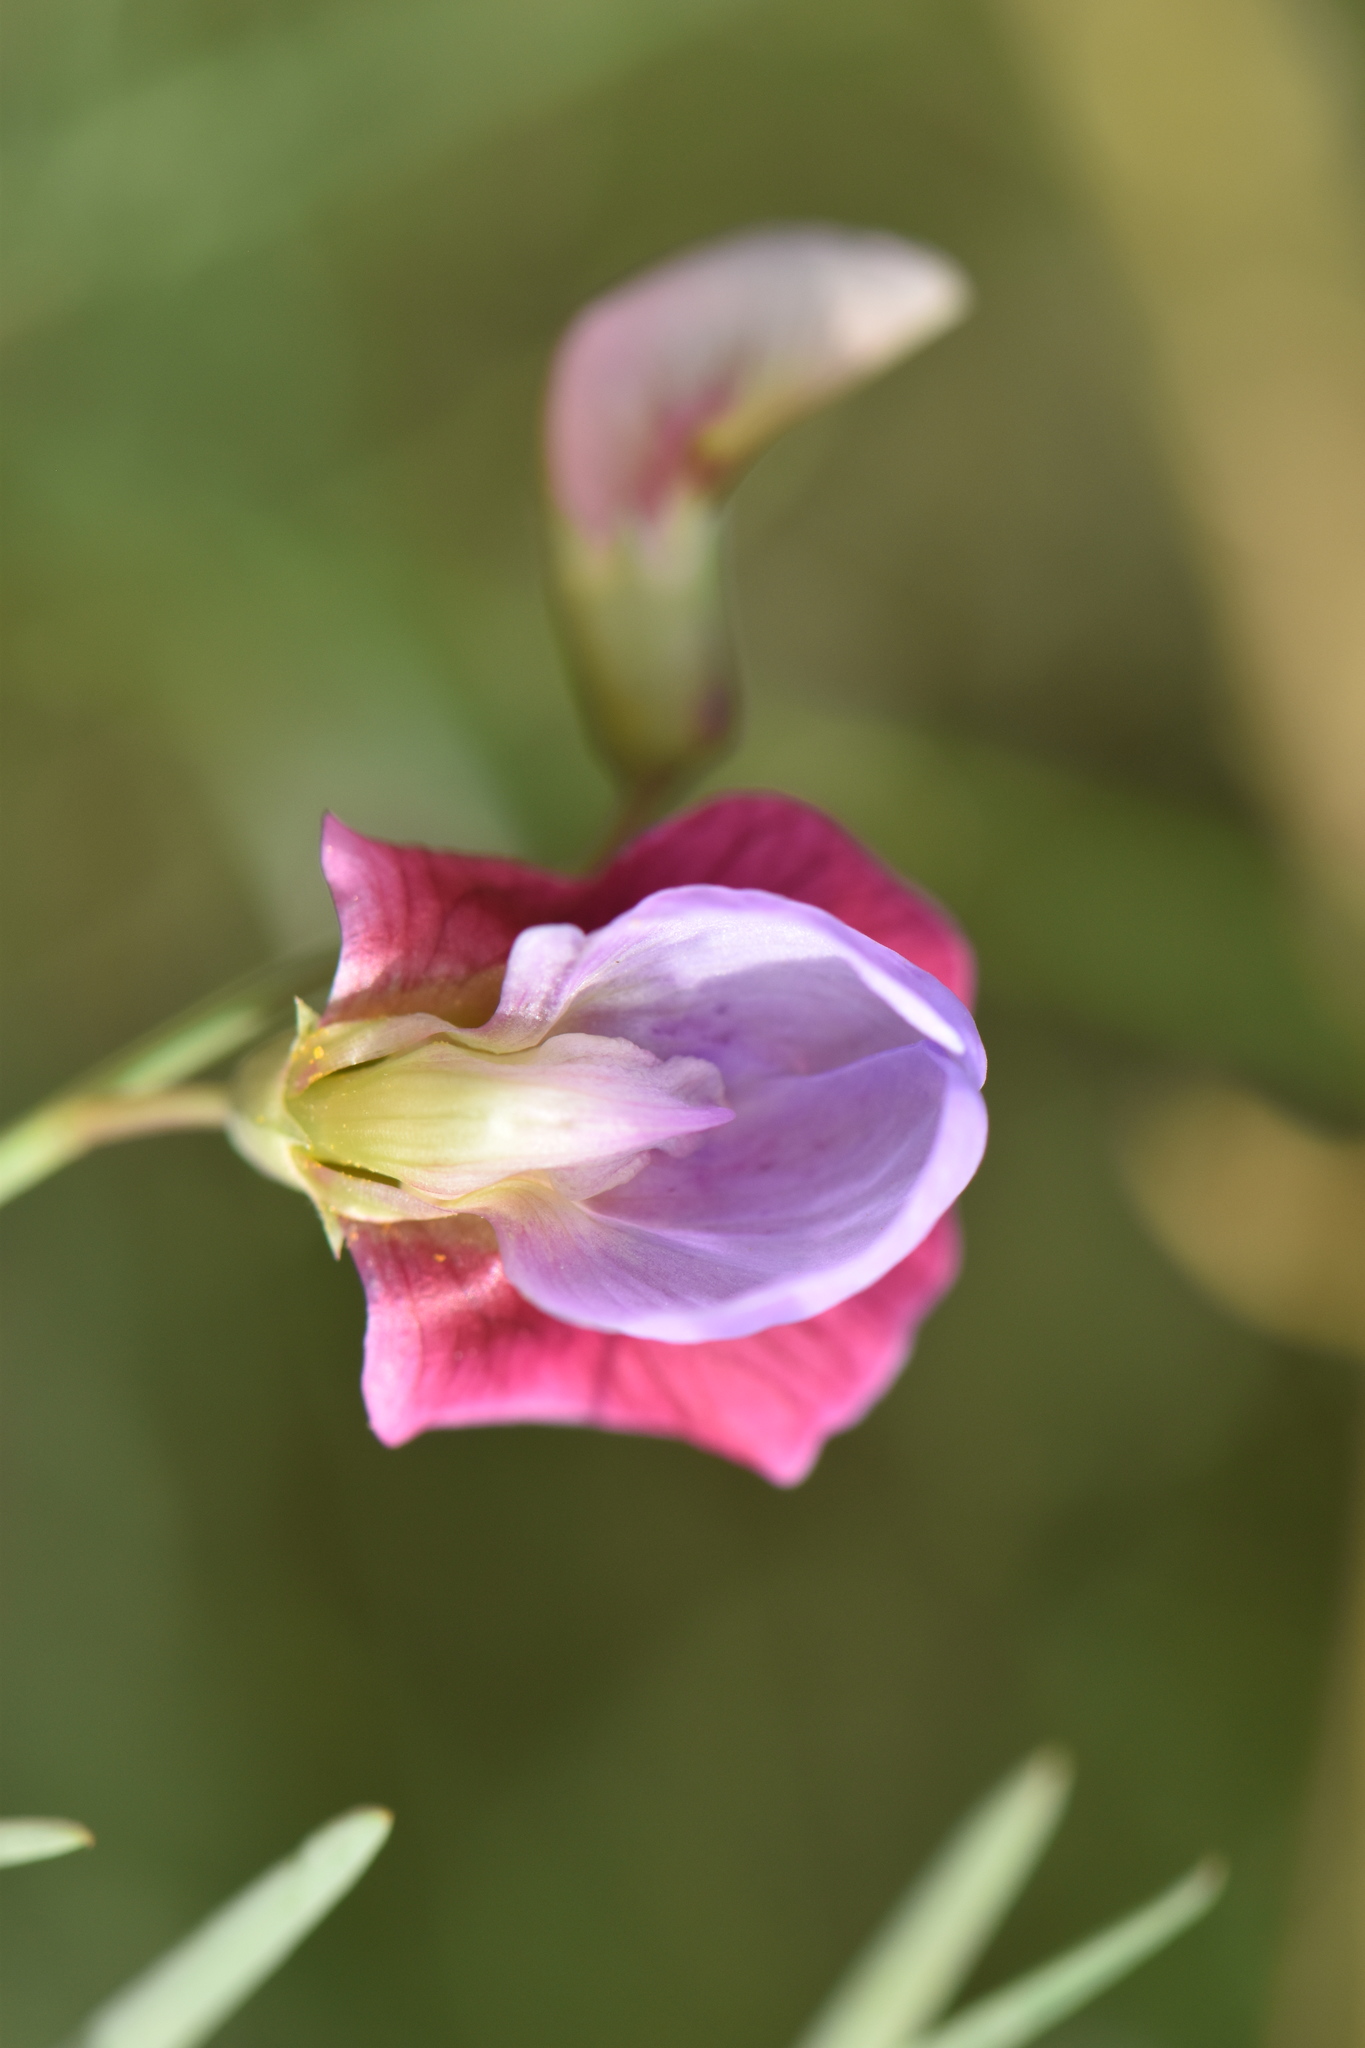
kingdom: Plantae
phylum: Tracheophyta
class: Magnoliopsida
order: Fabales
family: Fabaceae
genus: Lathyrus
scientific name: Lathyrus clymenum
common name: Spanish vetchling
